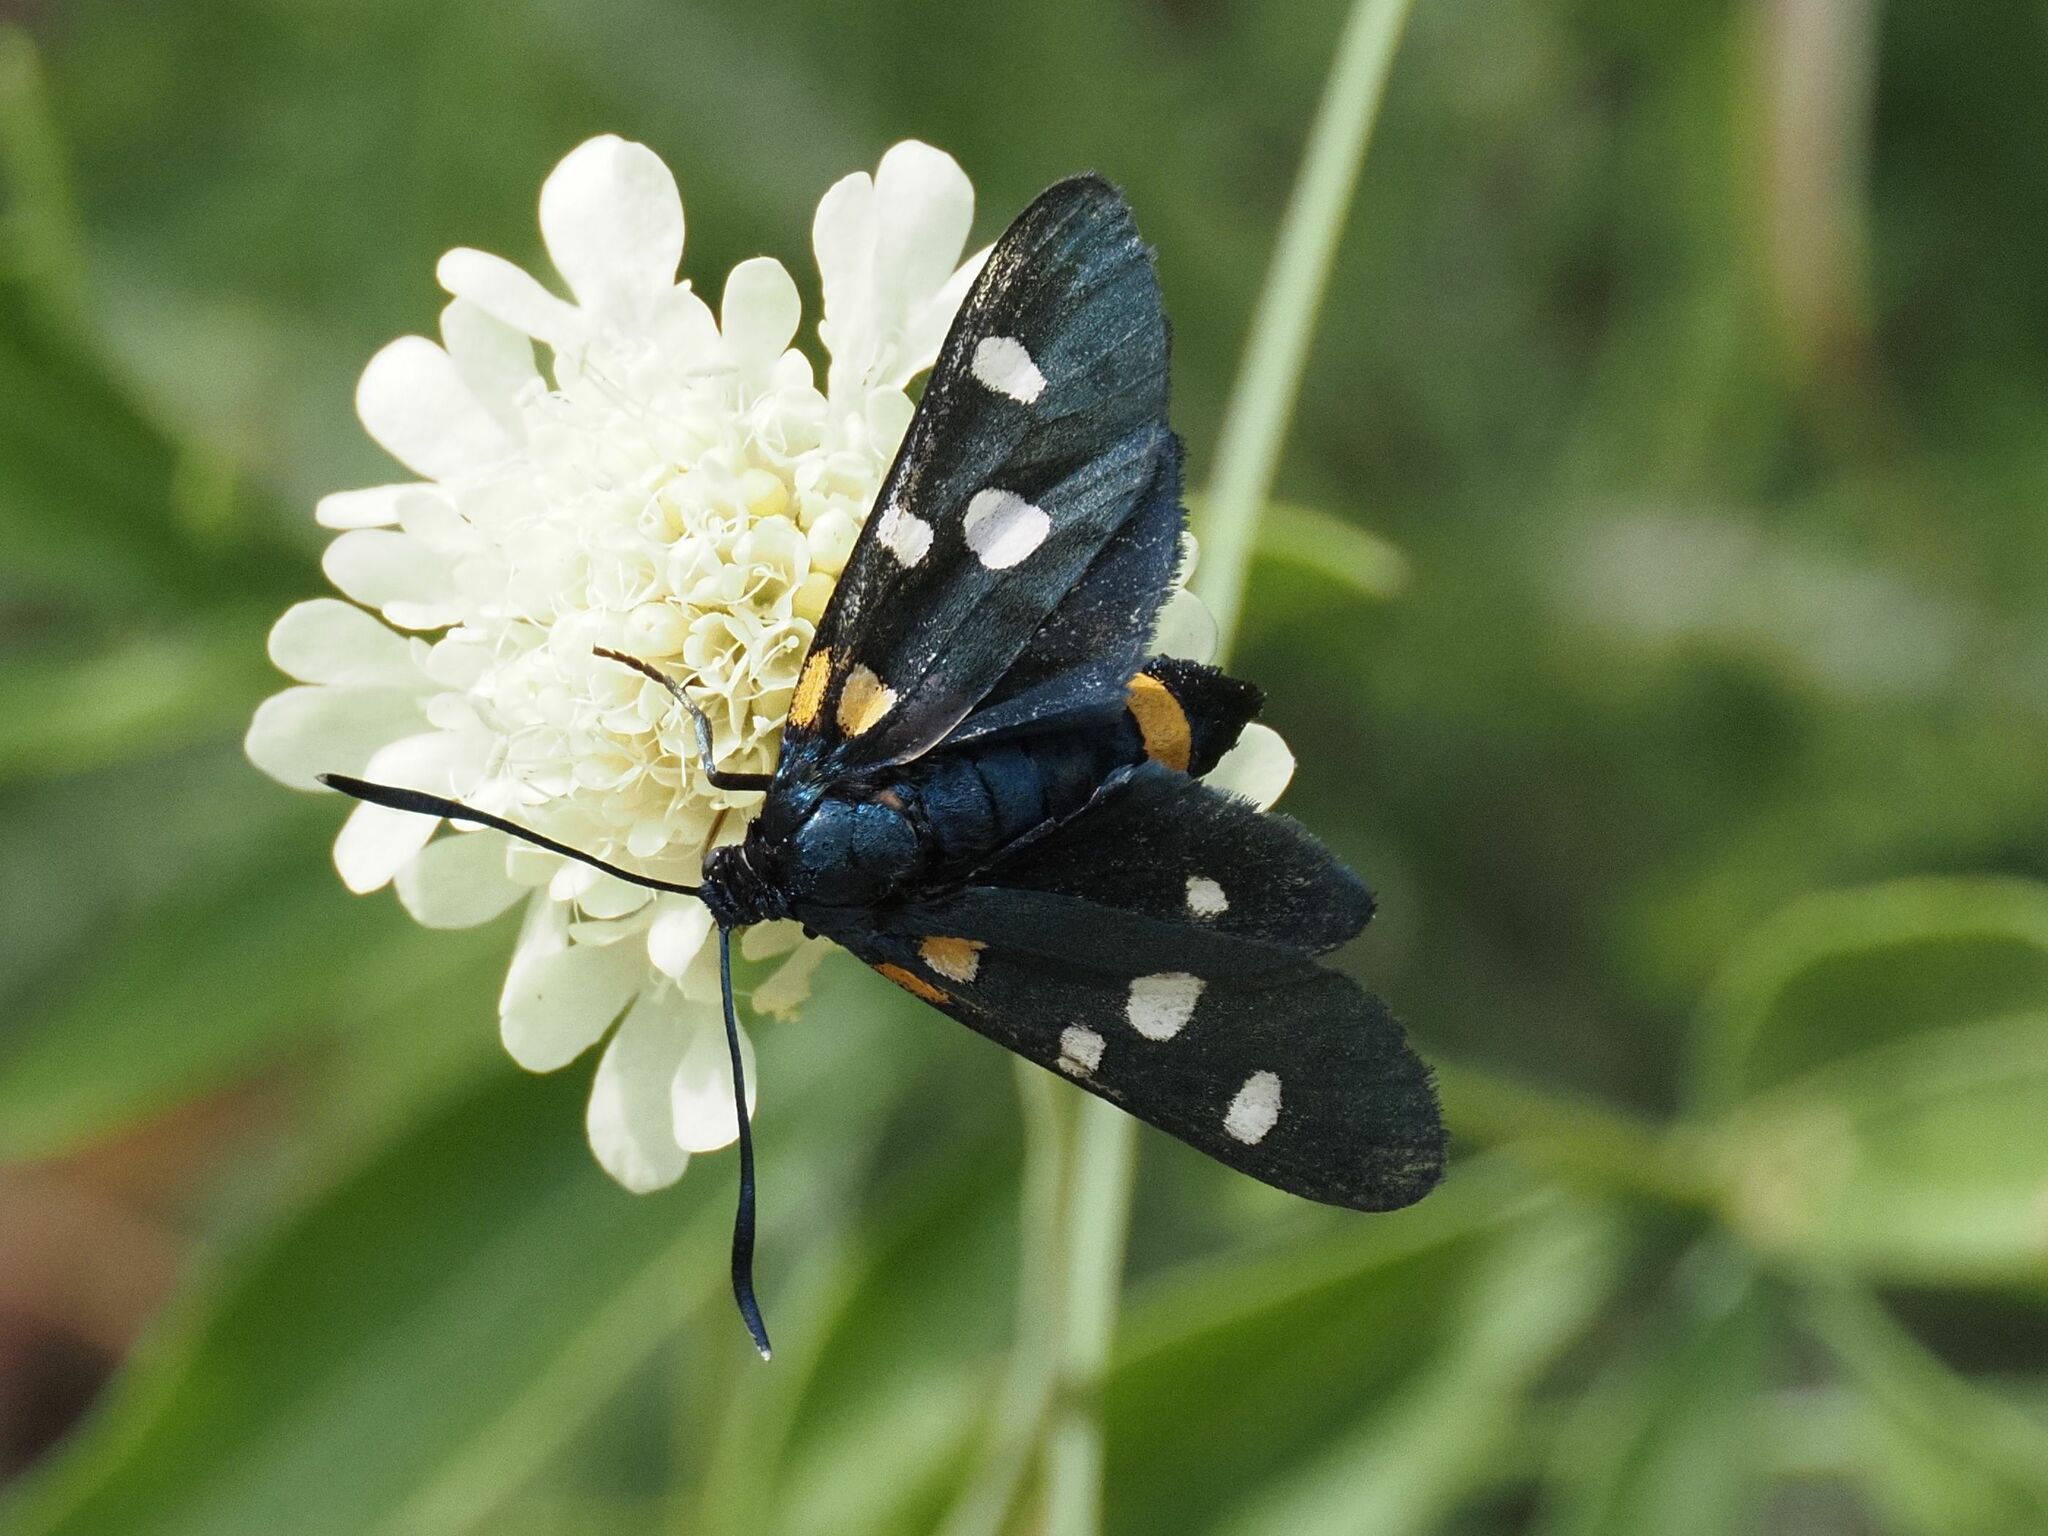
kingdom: Animalia
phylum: Arthropoda
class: Insecta
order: Lepidoptera
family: Zygaenidae
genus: Zygaena
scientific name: Zygaena ephialtes
